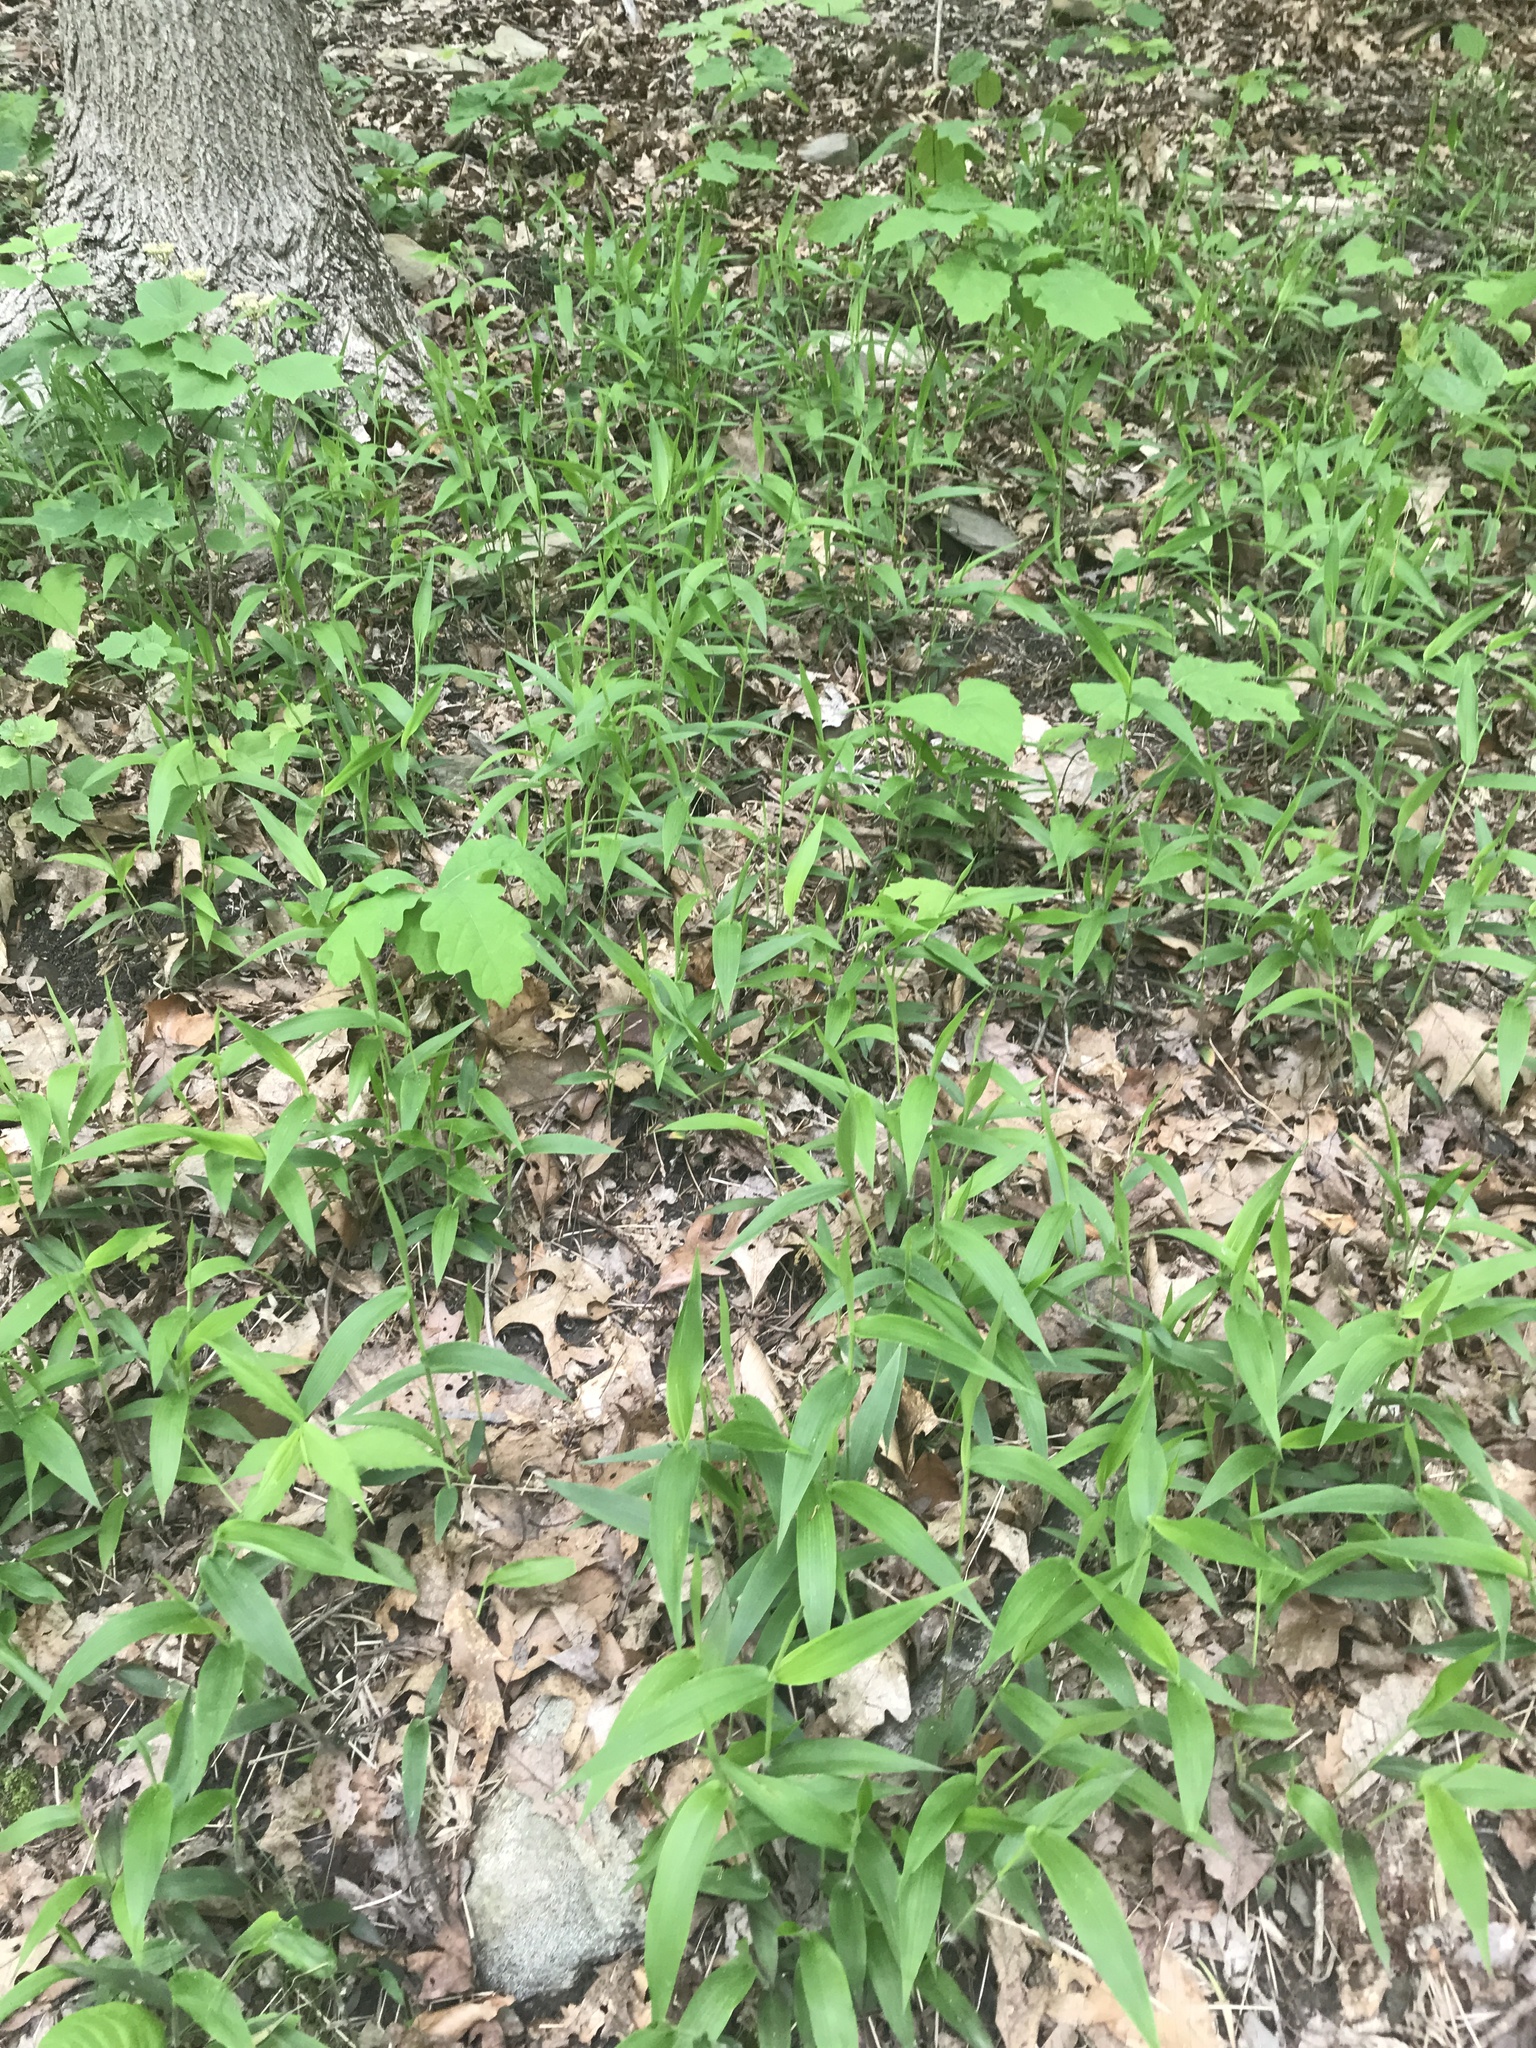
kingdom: Plantae
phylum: Tracheophyta
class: Liliopsida
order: Poales
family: Poaceae
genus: Dichanthelium
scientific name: Dichanthelium boscii
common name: Bosc's panic grass
